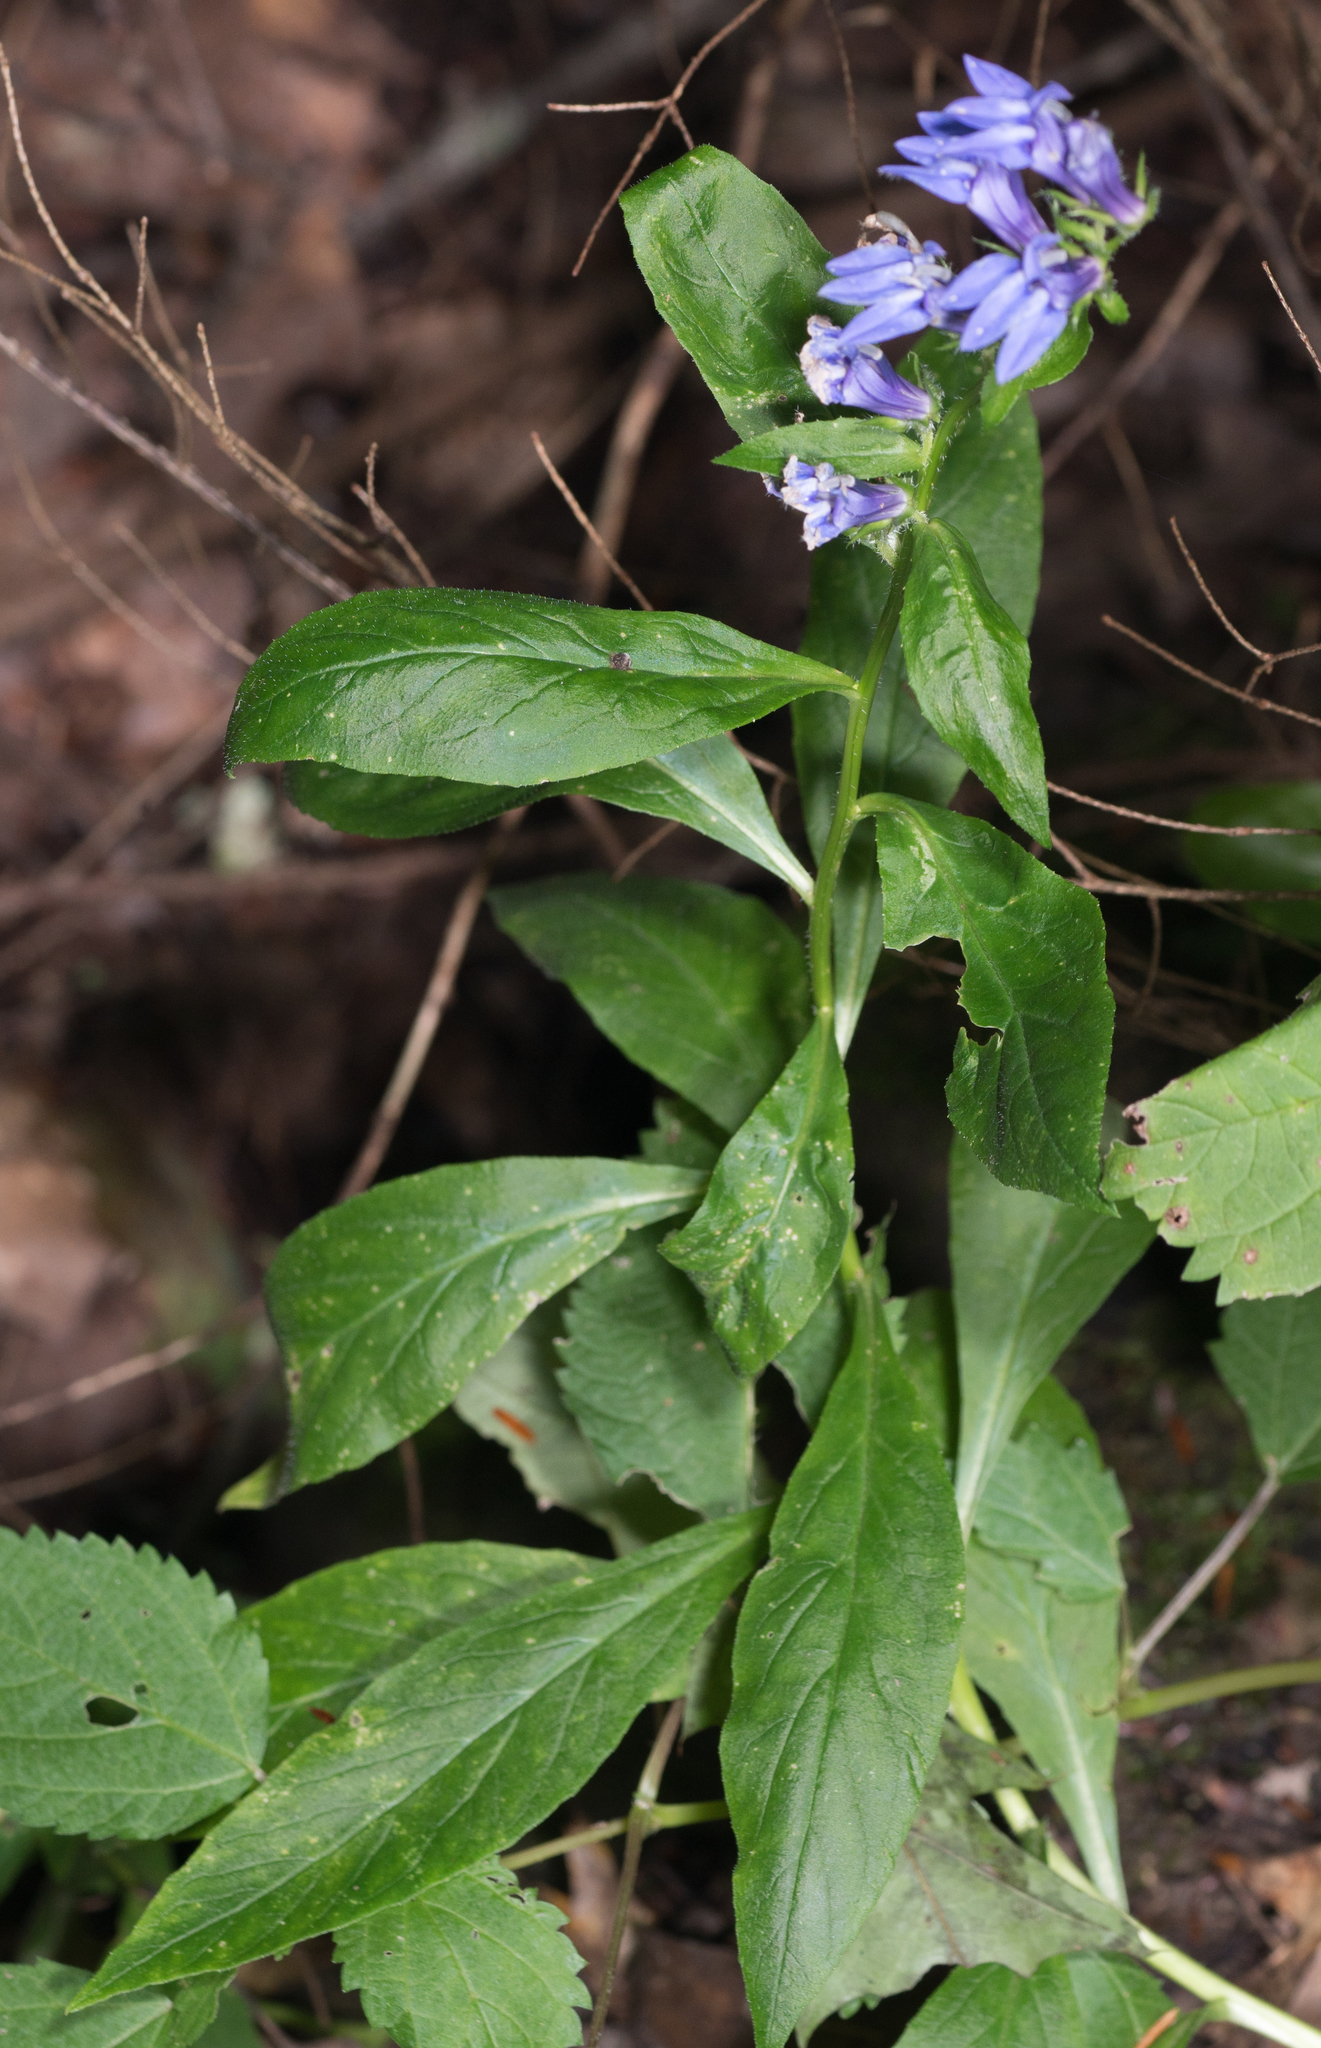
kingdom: Plantae
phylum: Tracheophyta
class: Magnoliopsida
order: Asterales
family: Campanulaceae
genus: Lobelia
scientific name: Lobelia siphilitica
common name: Great lobelia
